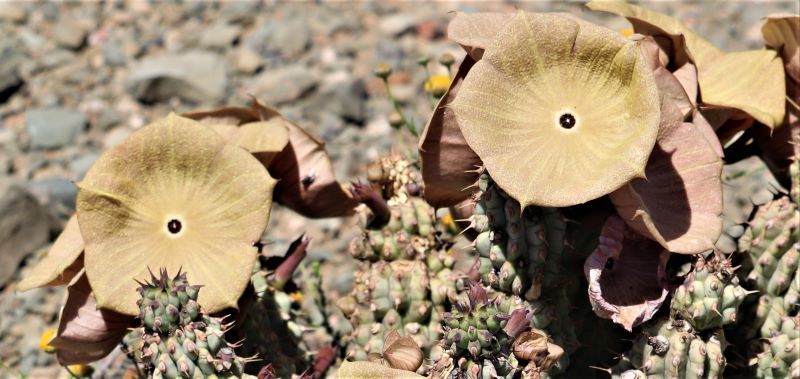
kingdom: Plantae
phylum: Tracheophyta
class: Magnoliopsida
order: Gentianales
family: Apocynaceae
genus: Hoodia
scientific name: Hoodia gordonii
